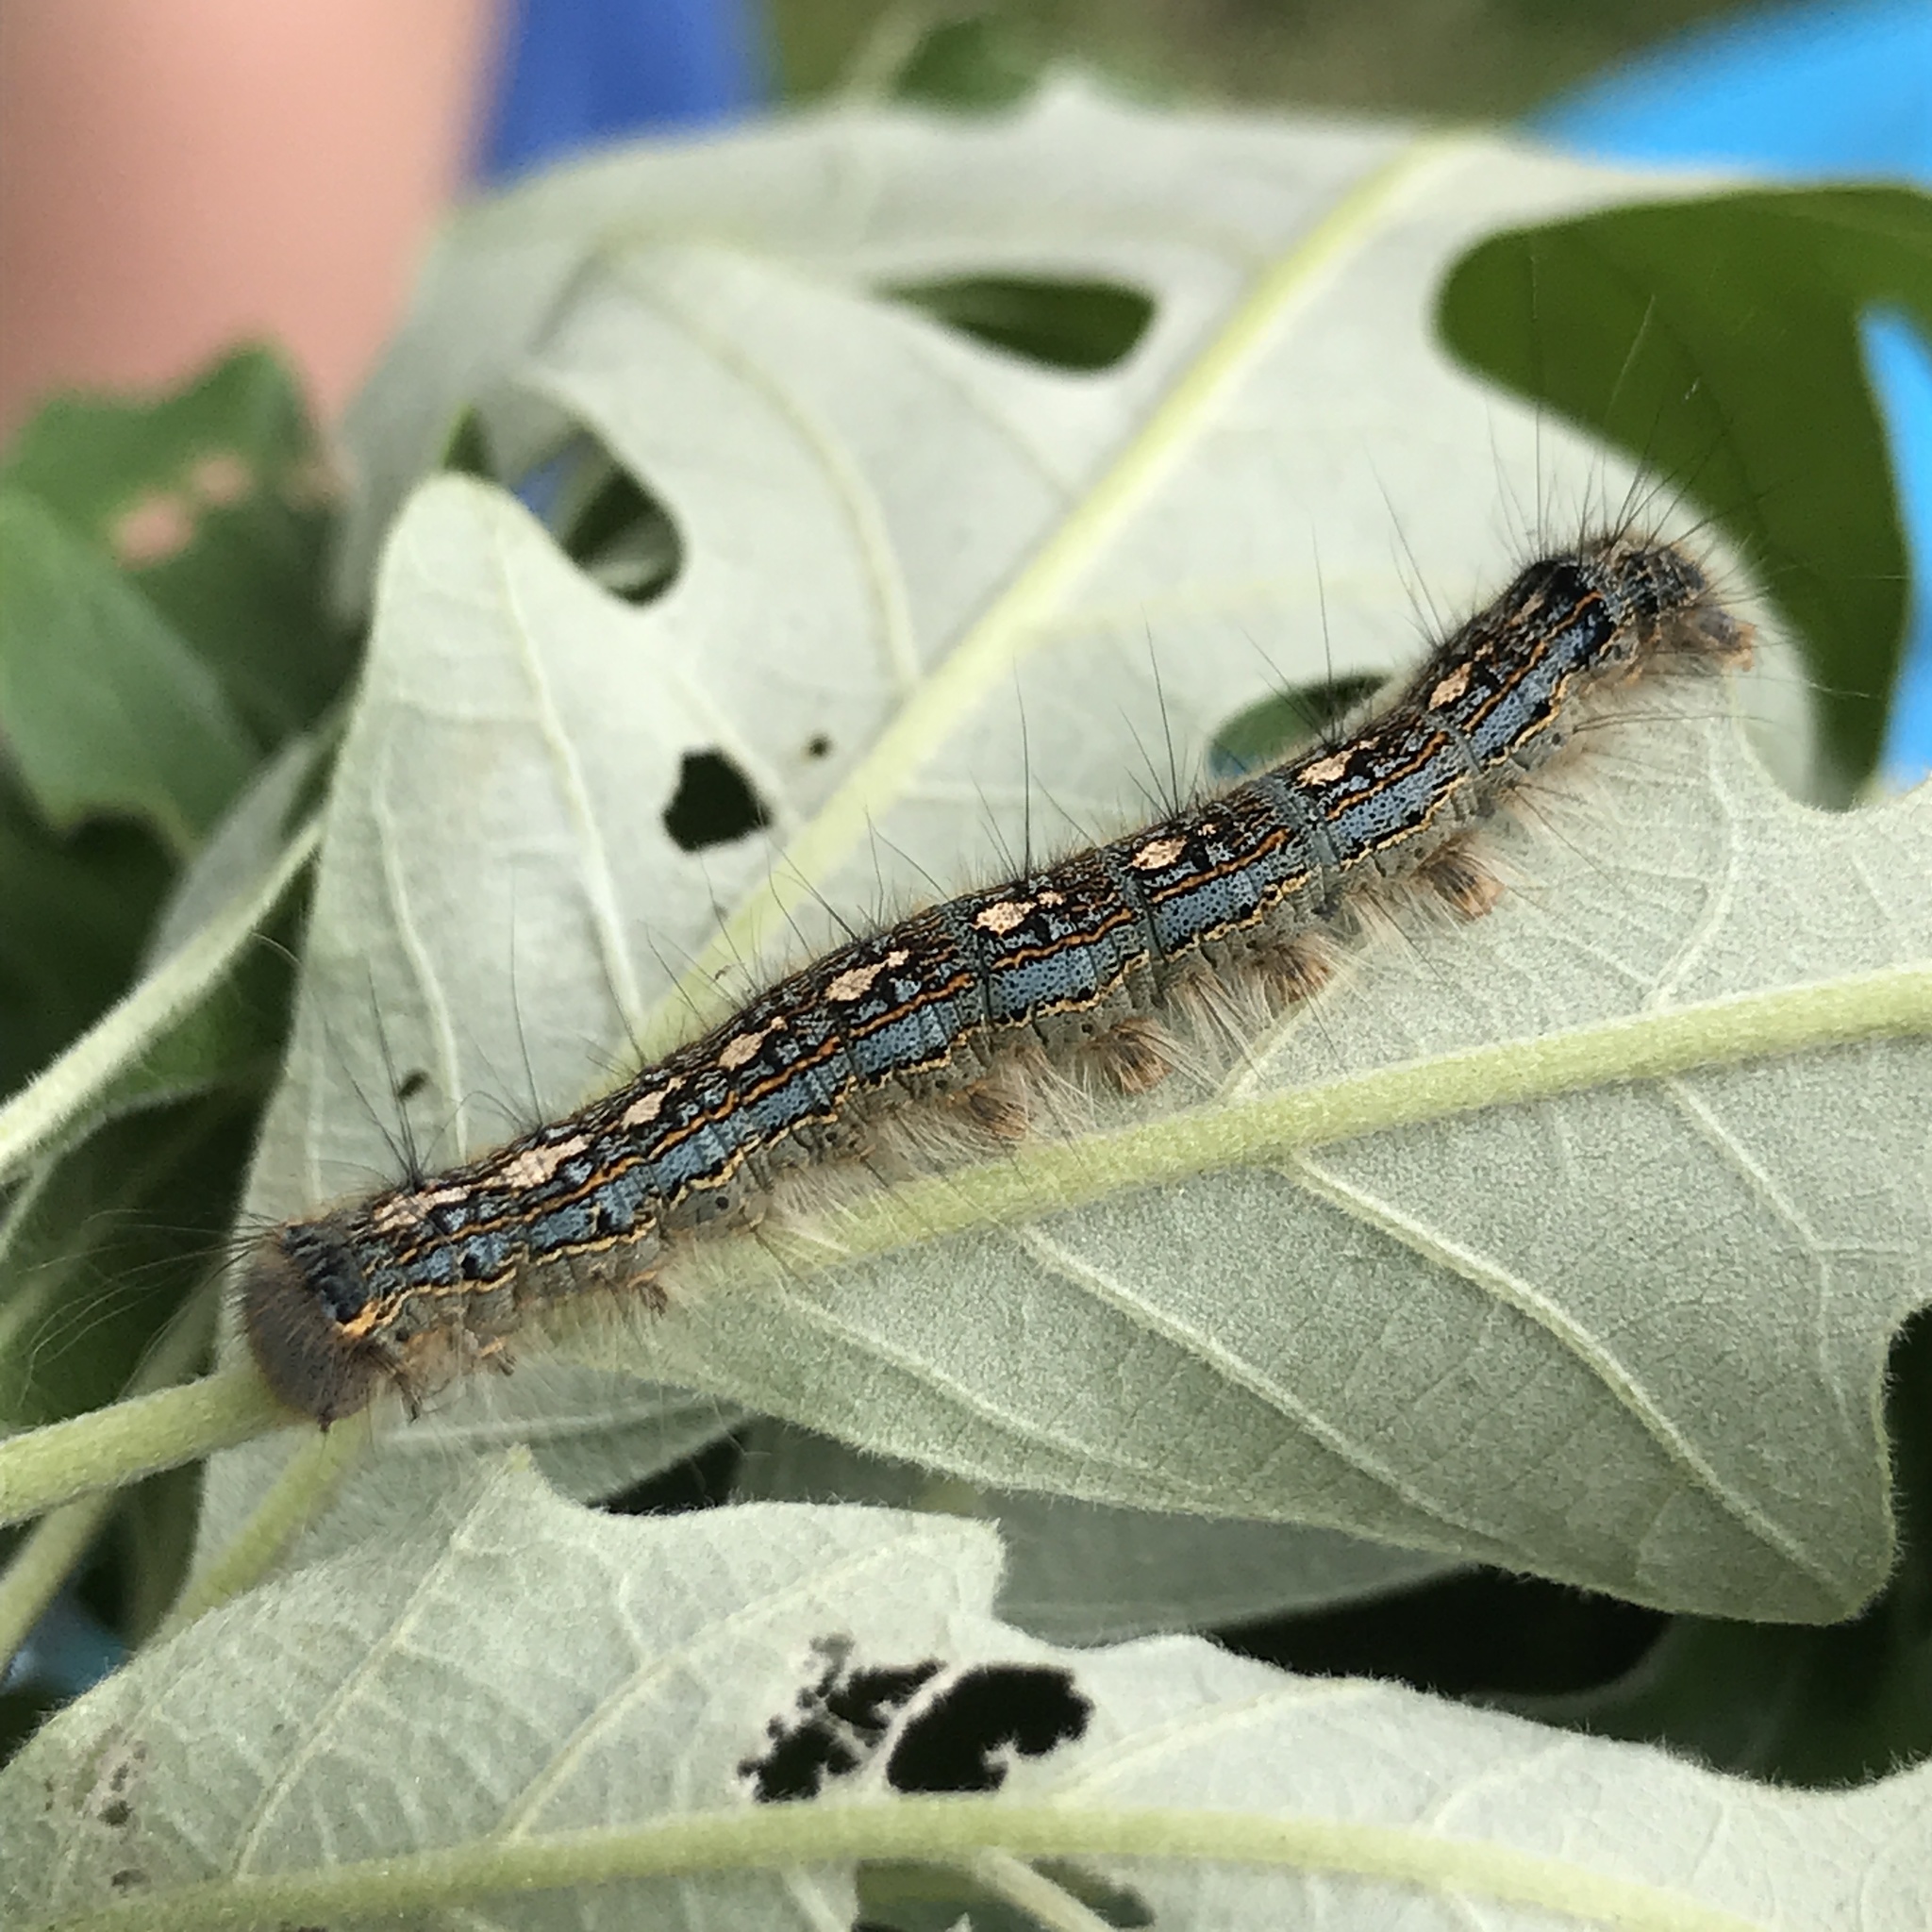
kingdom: Animalia
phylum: Arthropoda
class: Insecta
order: Lepidoptera
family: Lasiocampidae
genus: Malacosoma
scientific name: Malacosoma disstria
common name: Forest tent caterpillar
